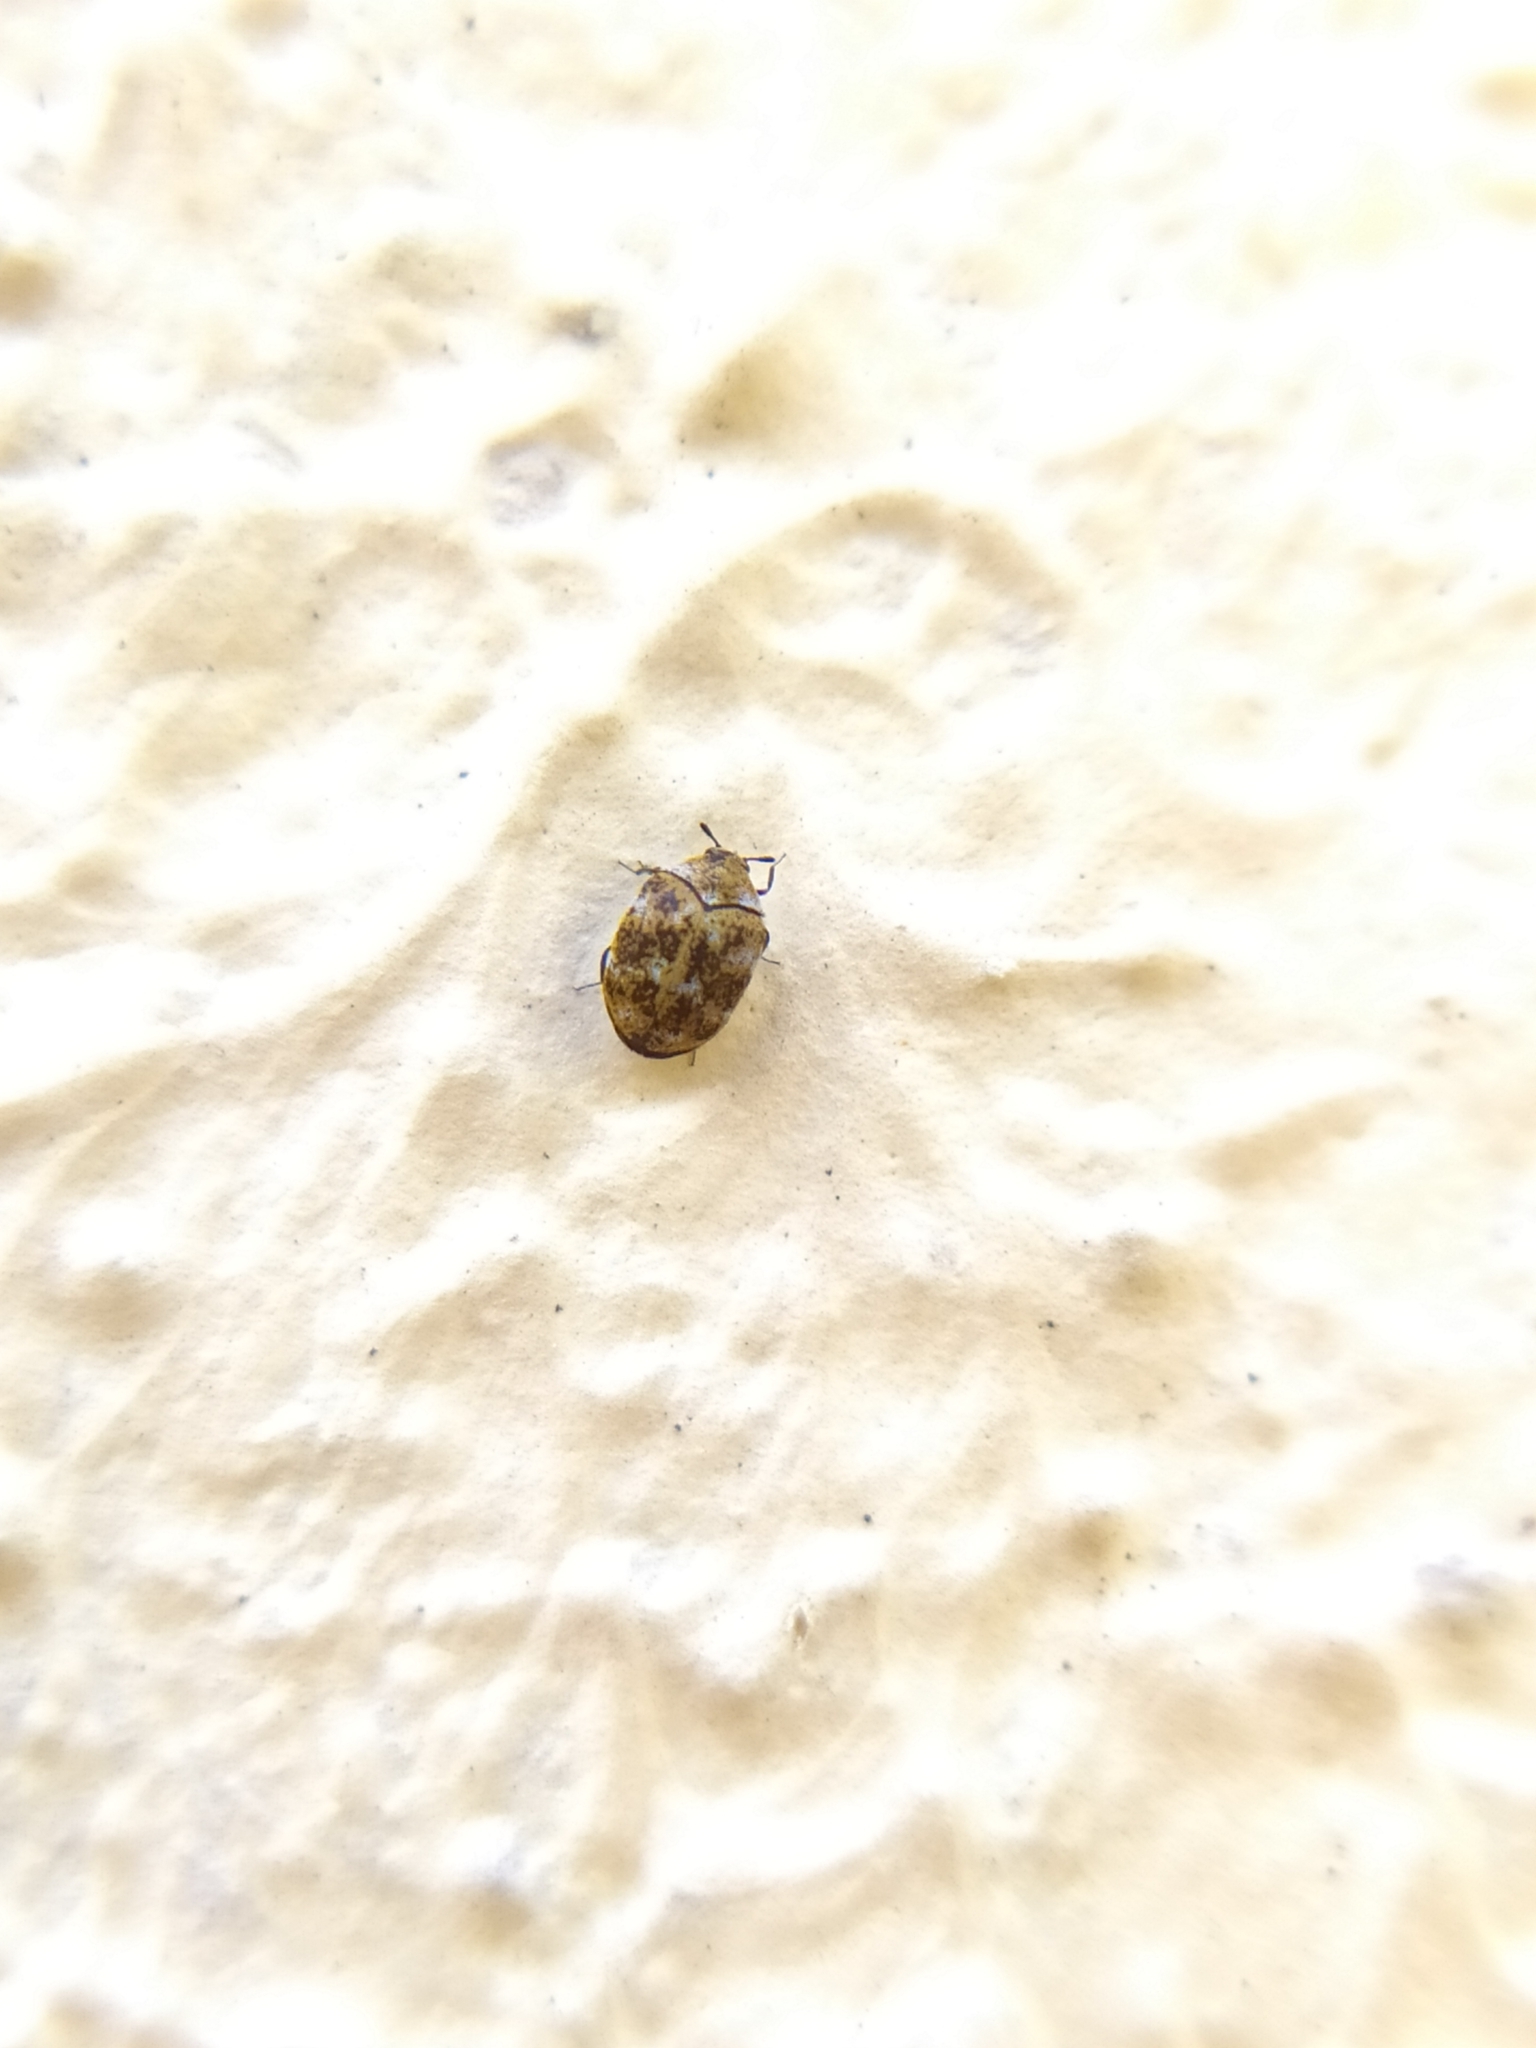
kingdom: Animalia
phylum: Arthropoda
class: Insecta
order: Coleoptera
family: Dermestidae
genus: Anthrenus
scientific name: Anthrenus verbasci
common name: Varied carpet beetle
